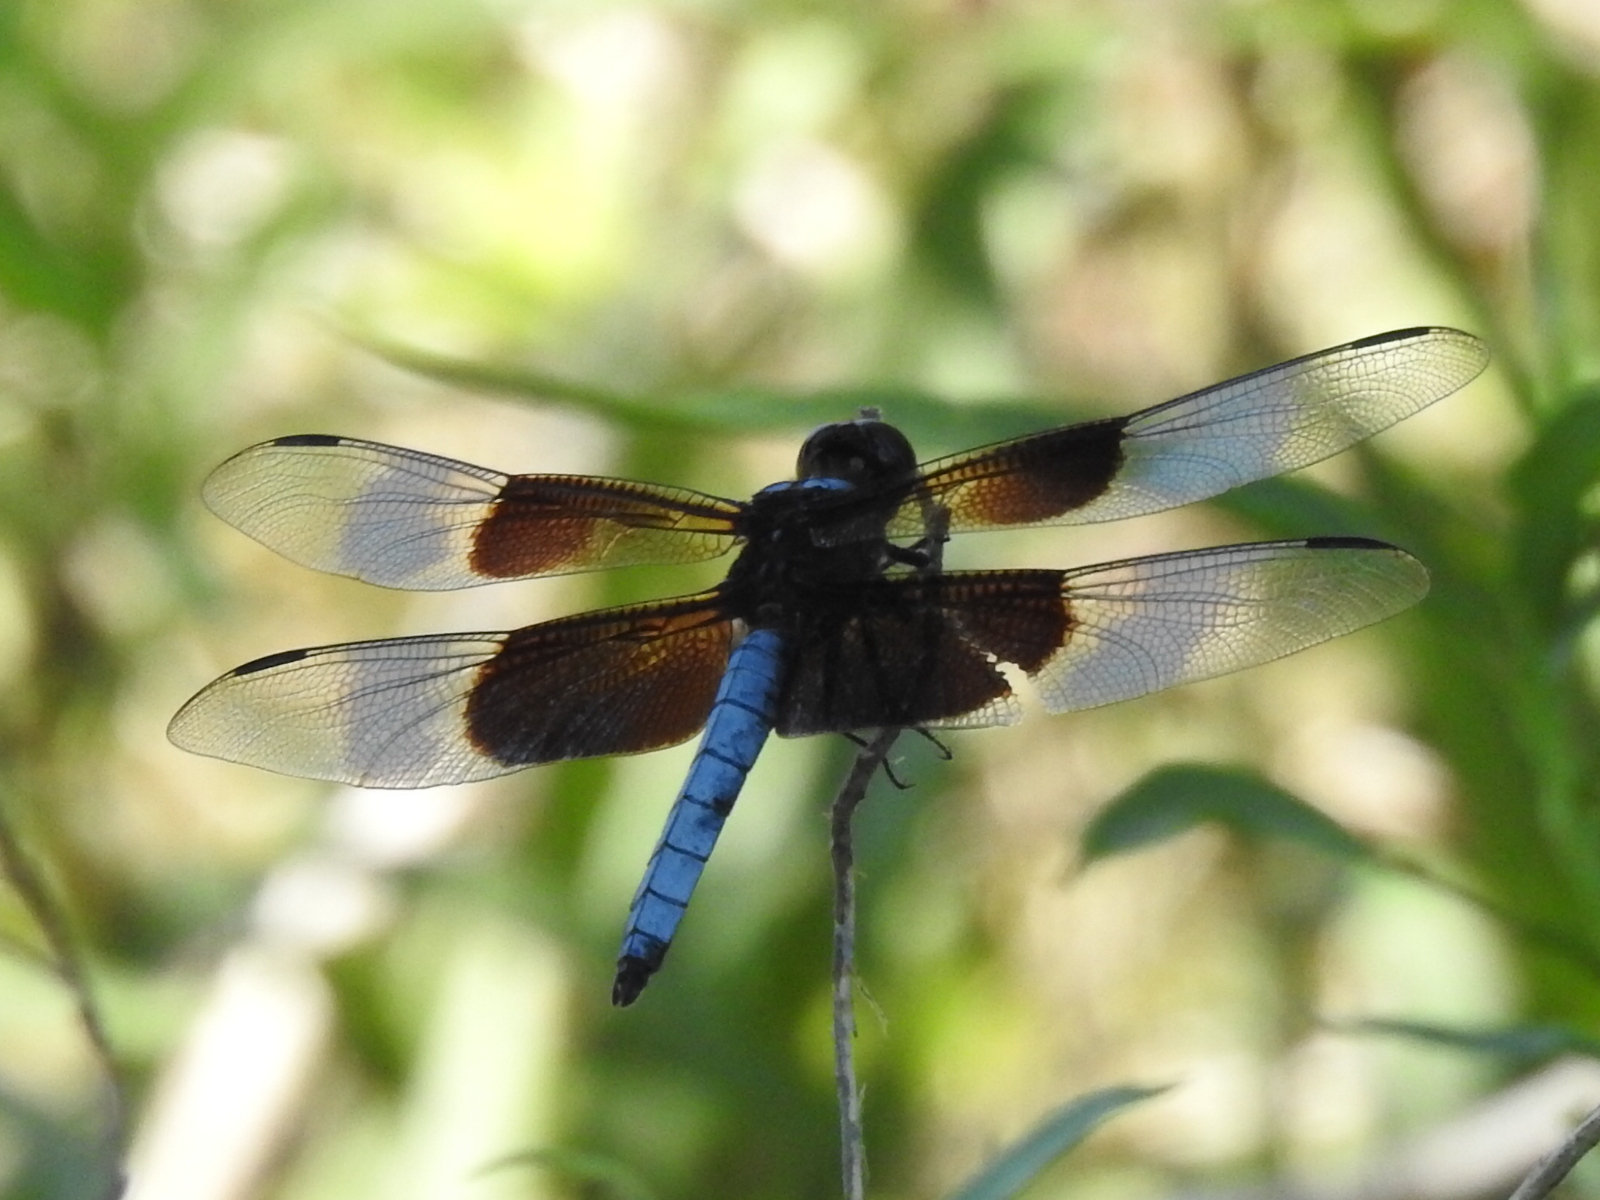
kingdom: Animalia
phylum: Arthropoda
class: Insecta
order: Odonata
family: Libellulidae
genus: Libellula
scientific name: Libellula luctuosa
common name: Widow skimmer
